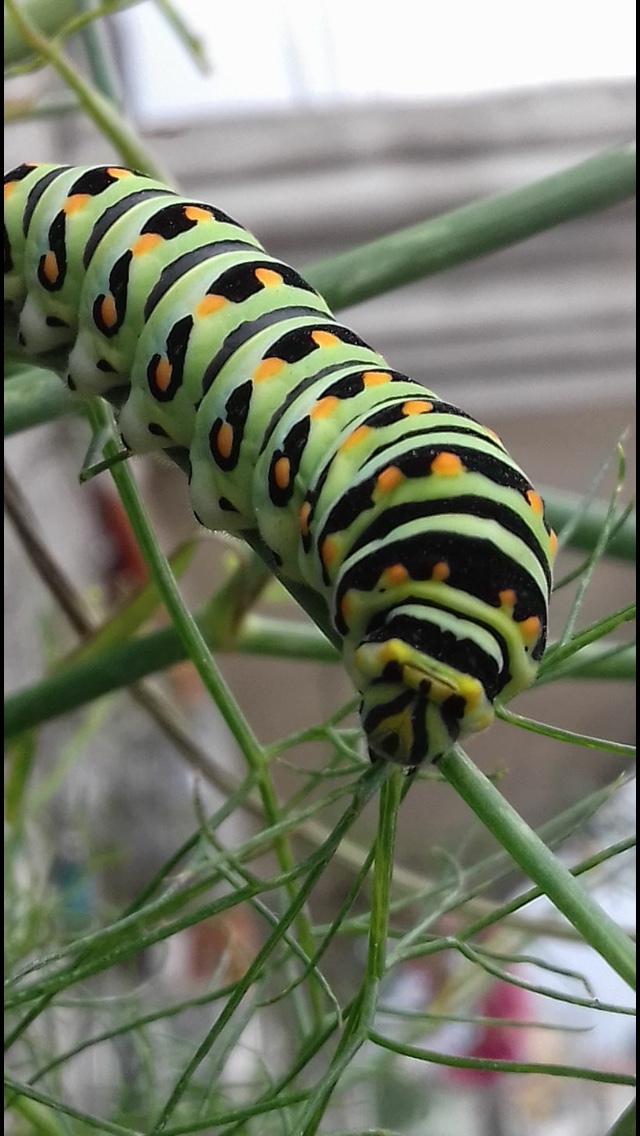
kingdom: Animalia
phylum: Arthropoda
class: Insecta
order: Lepidoptera
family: Papilionidae
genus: Papilio
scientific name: Papilio polyxenes
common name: Black swallowtail
